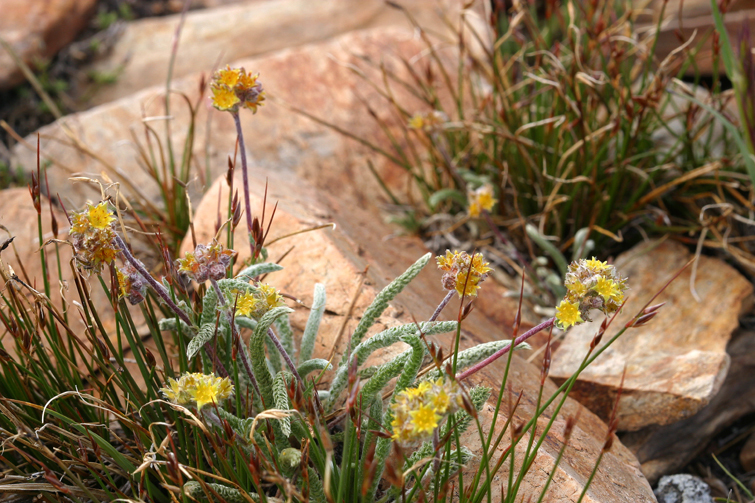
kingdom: Plantae
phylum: Tracheophyta
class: Magnoliopsida
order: Rosales
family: Rosaceae
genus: Potentilla
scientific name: Potentilla muirii
